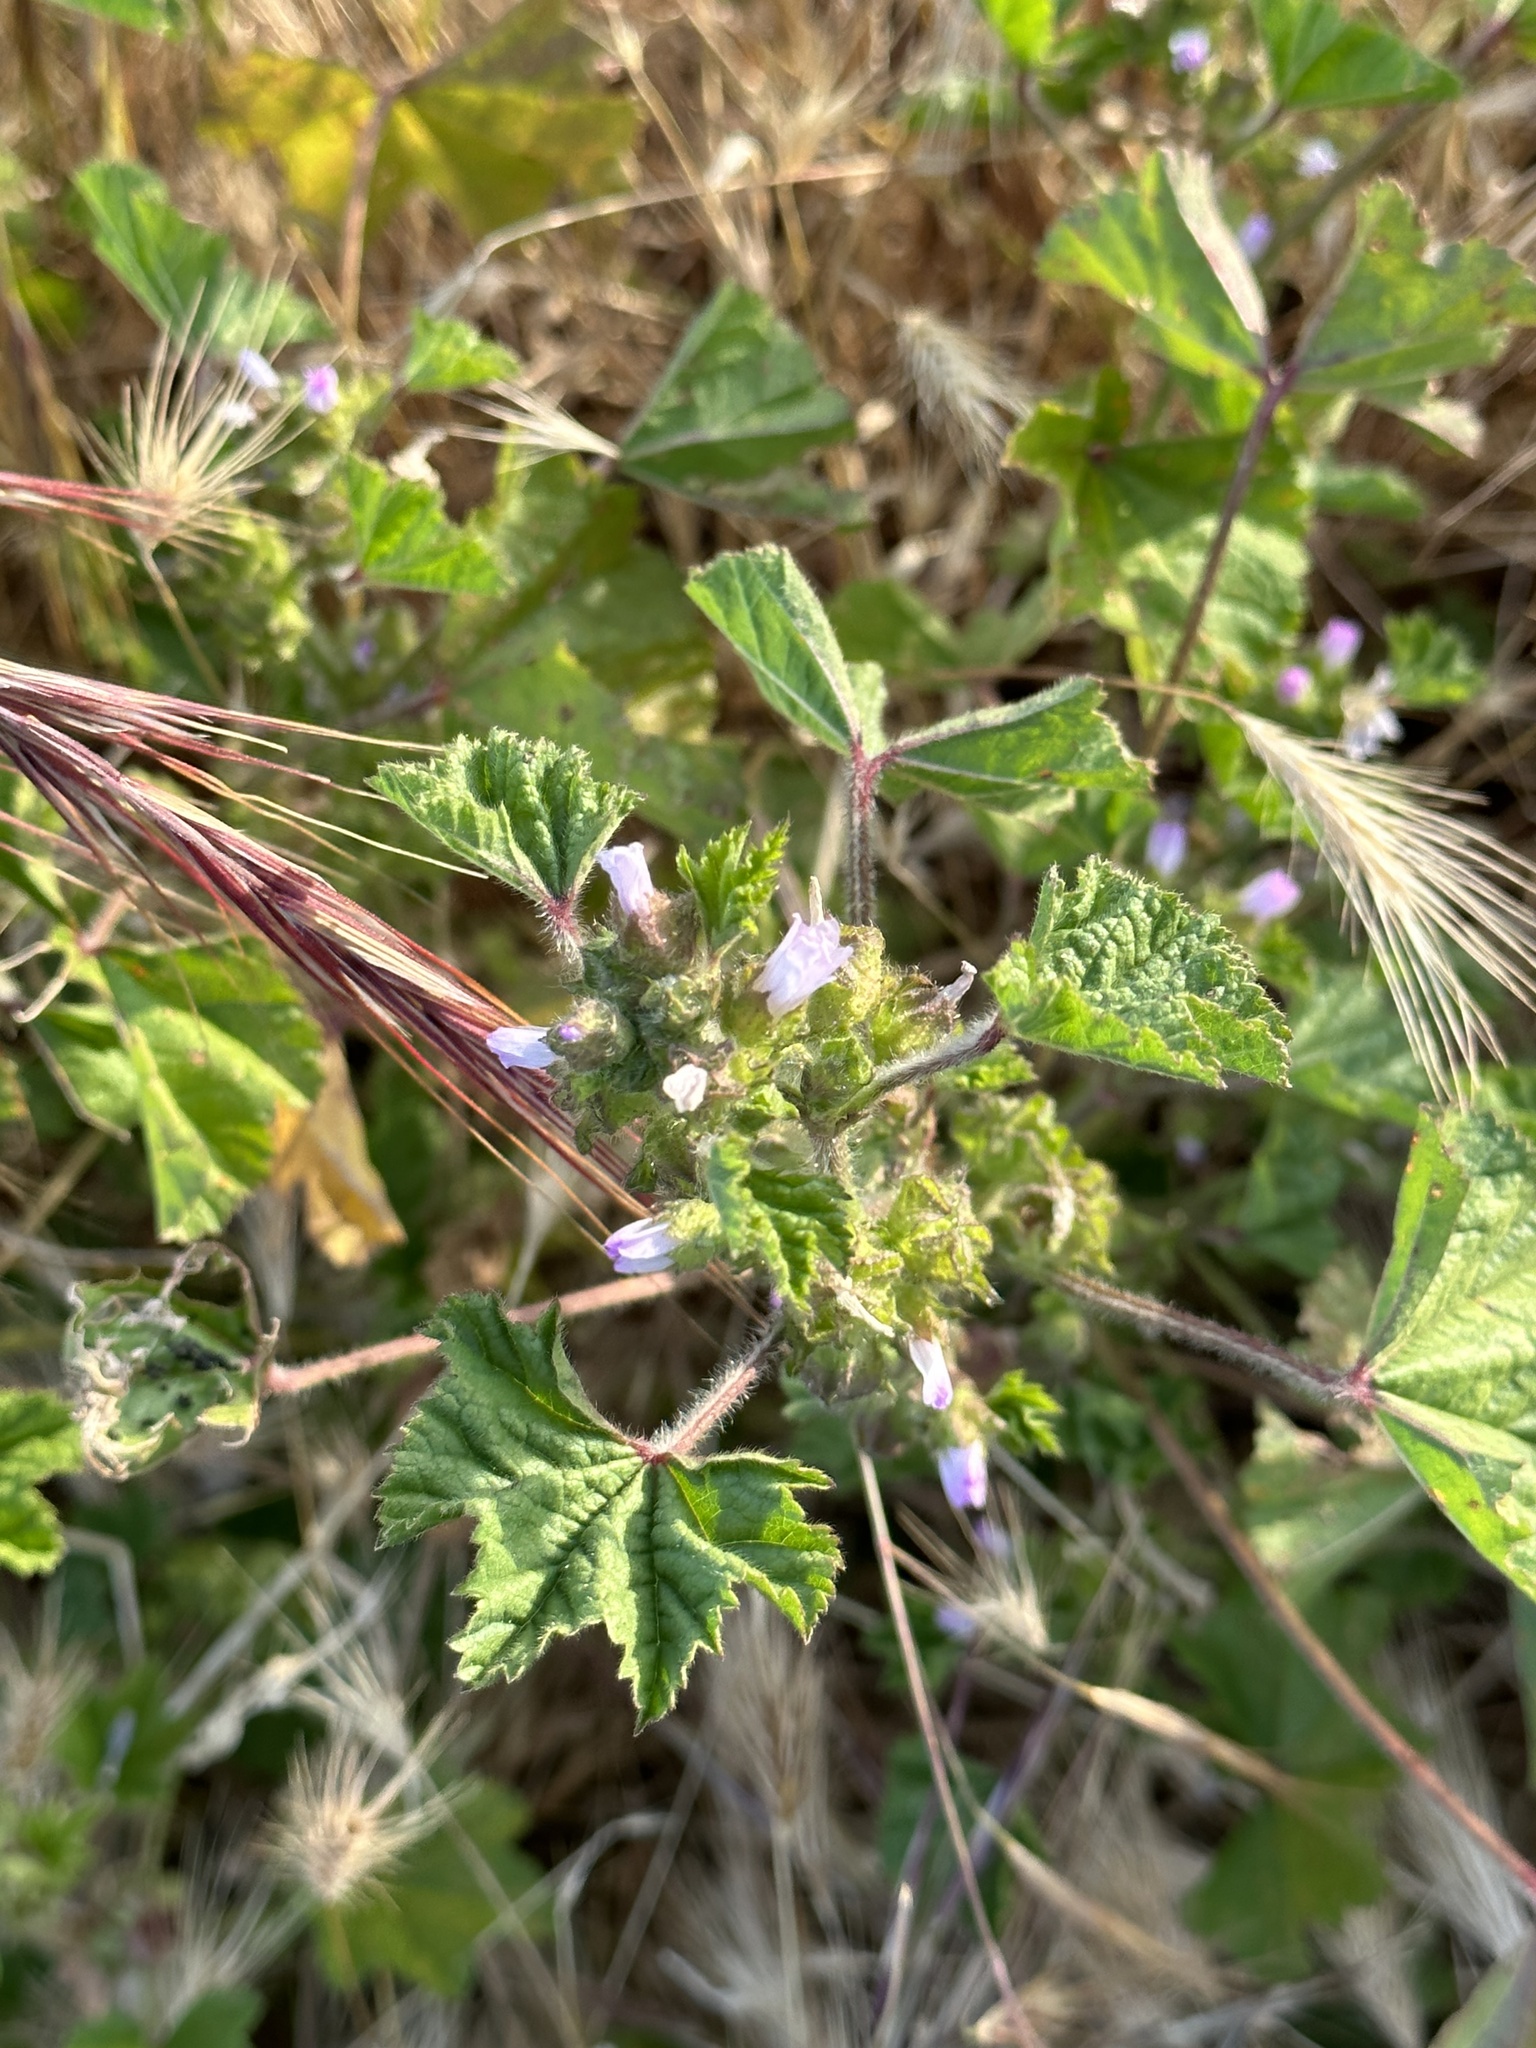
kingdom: Plantae
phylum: Tracheophyta
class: Magnoliopsida
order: Malvales
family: Malvaceae
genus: Malva
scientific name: Malva nicaeensis
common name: French mallow
